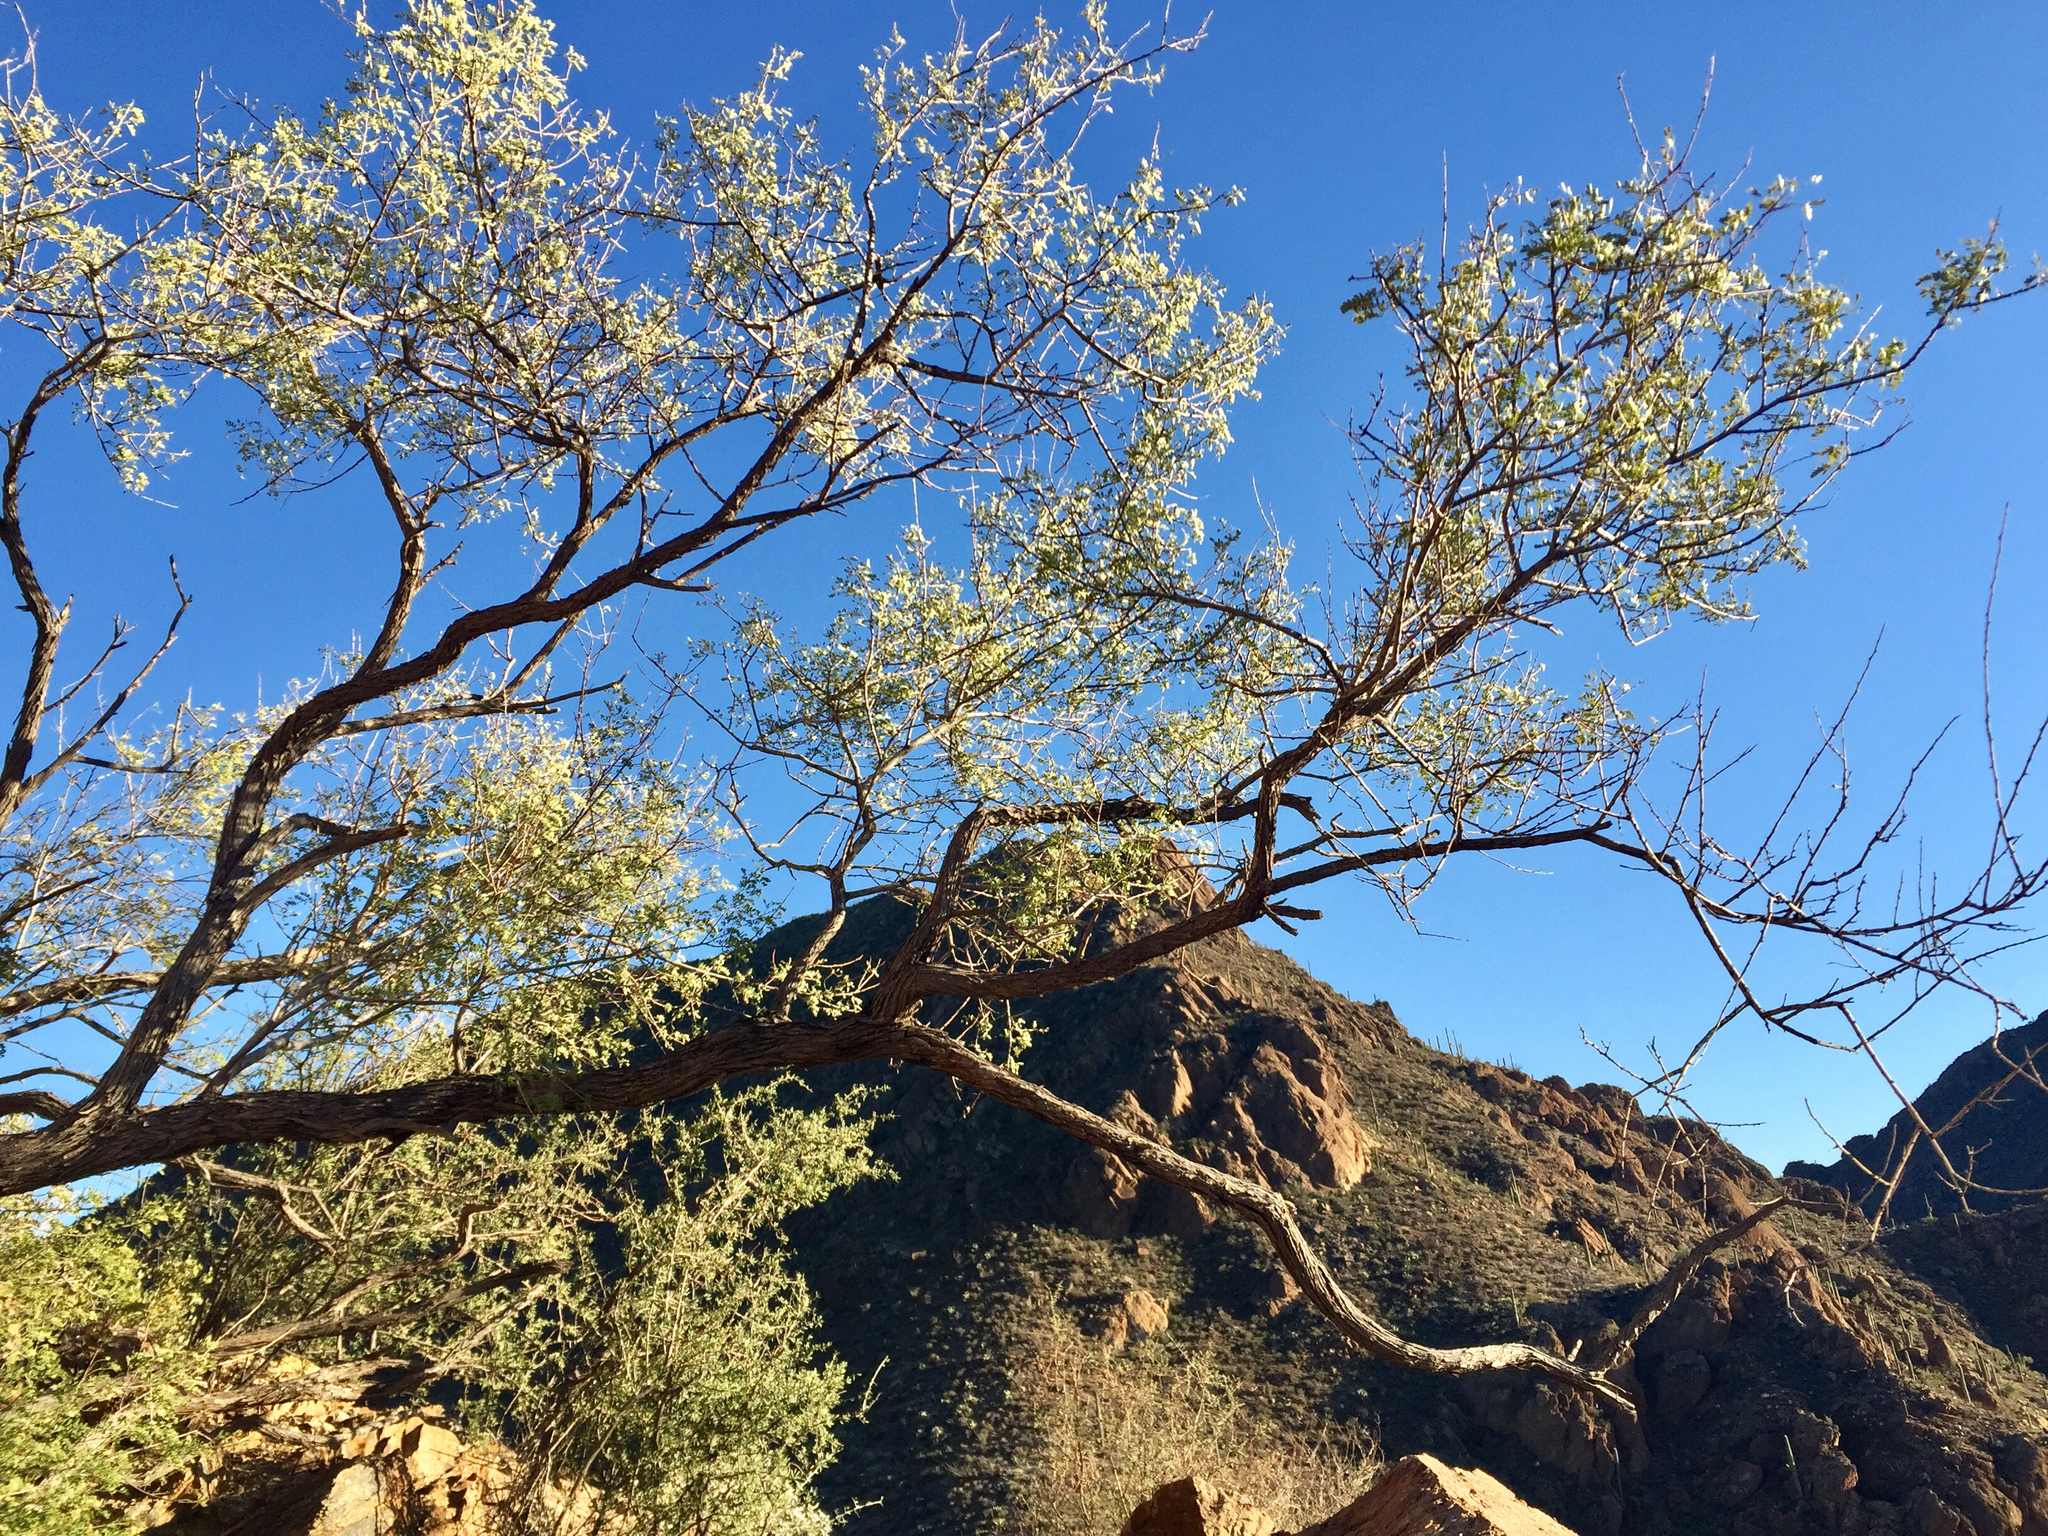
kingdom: Plantae
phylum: Tracheophyta
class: Magnoliopsida
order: Fabales
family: Fabaceae
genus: Senegalia
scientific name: Senegalia greggii
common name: Texas-mimosa
